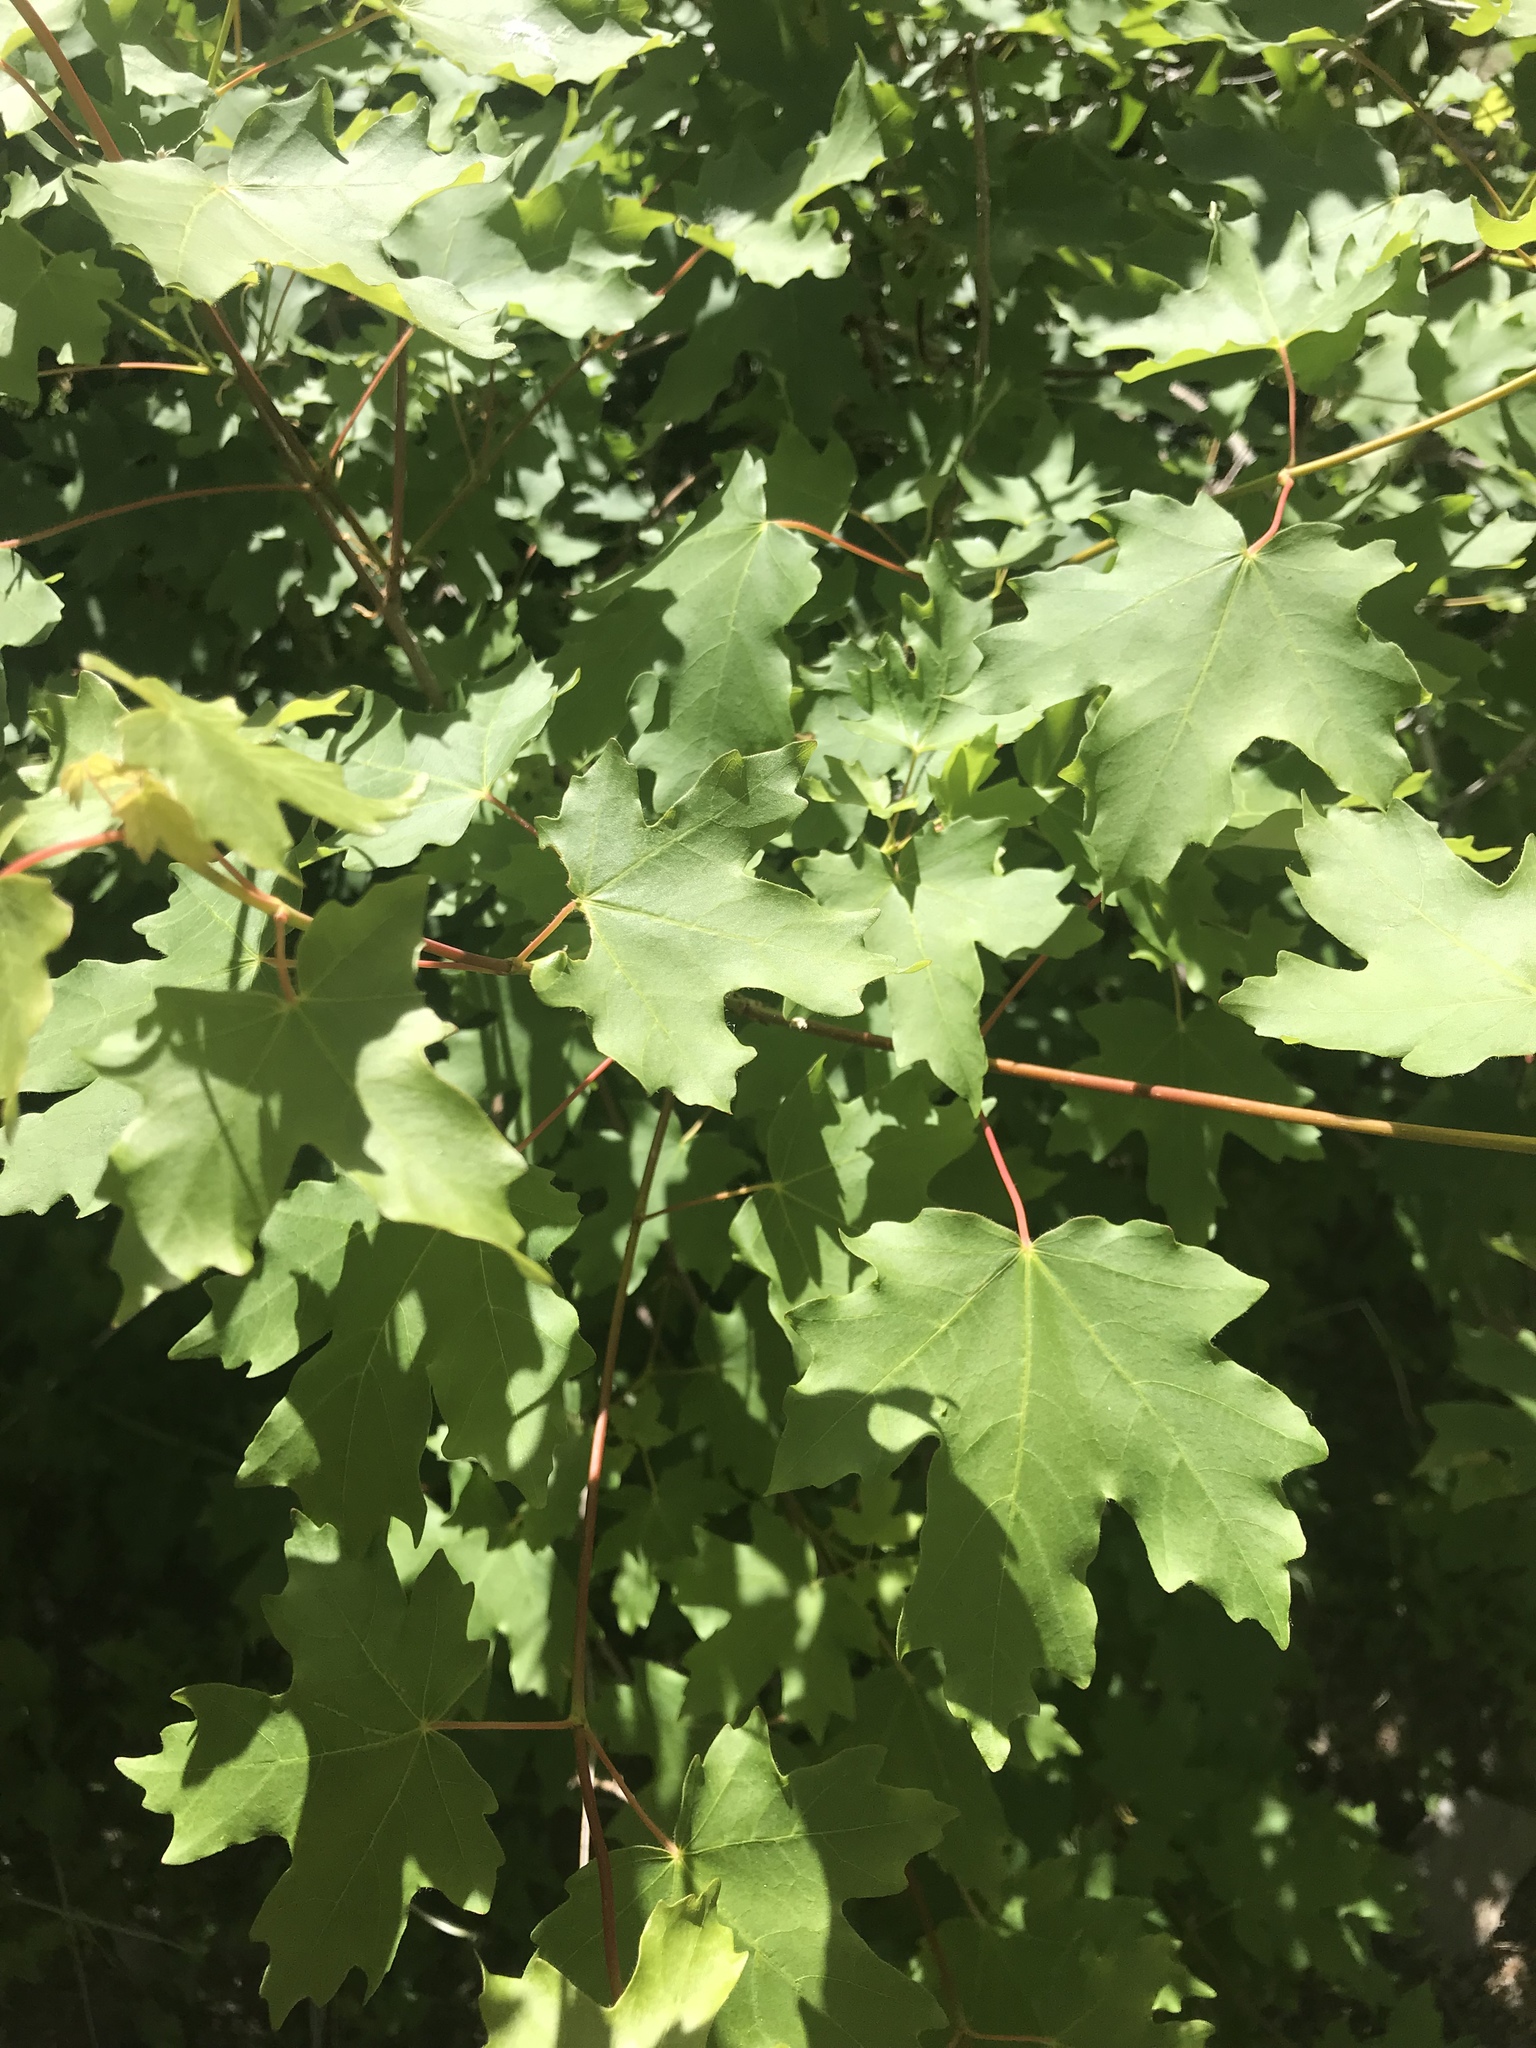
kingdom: Plantae
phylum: Tracheophyta
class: Magnoliopsida
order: Sapindales
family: Sapindaceae
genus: Acer
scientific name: Acer grandidentatum
